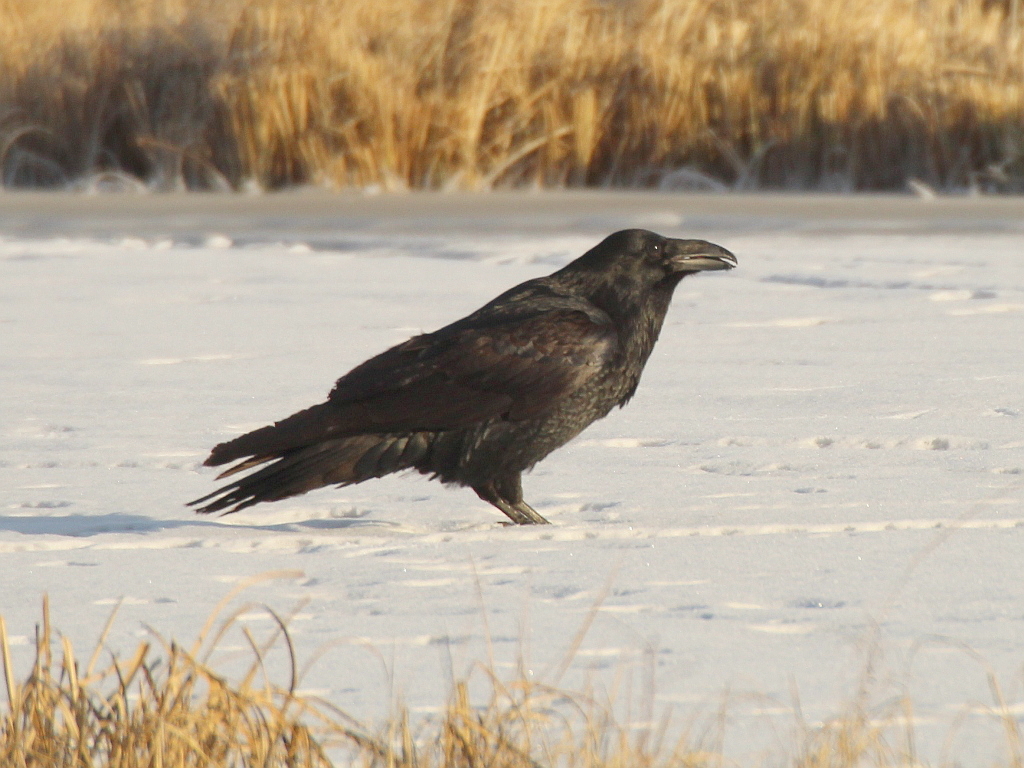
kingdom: Animalia
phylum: Chordata
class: Aves
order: Passeriformes
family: Corvidae
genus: Corvus
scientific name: Corvus corax
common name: Common raven
